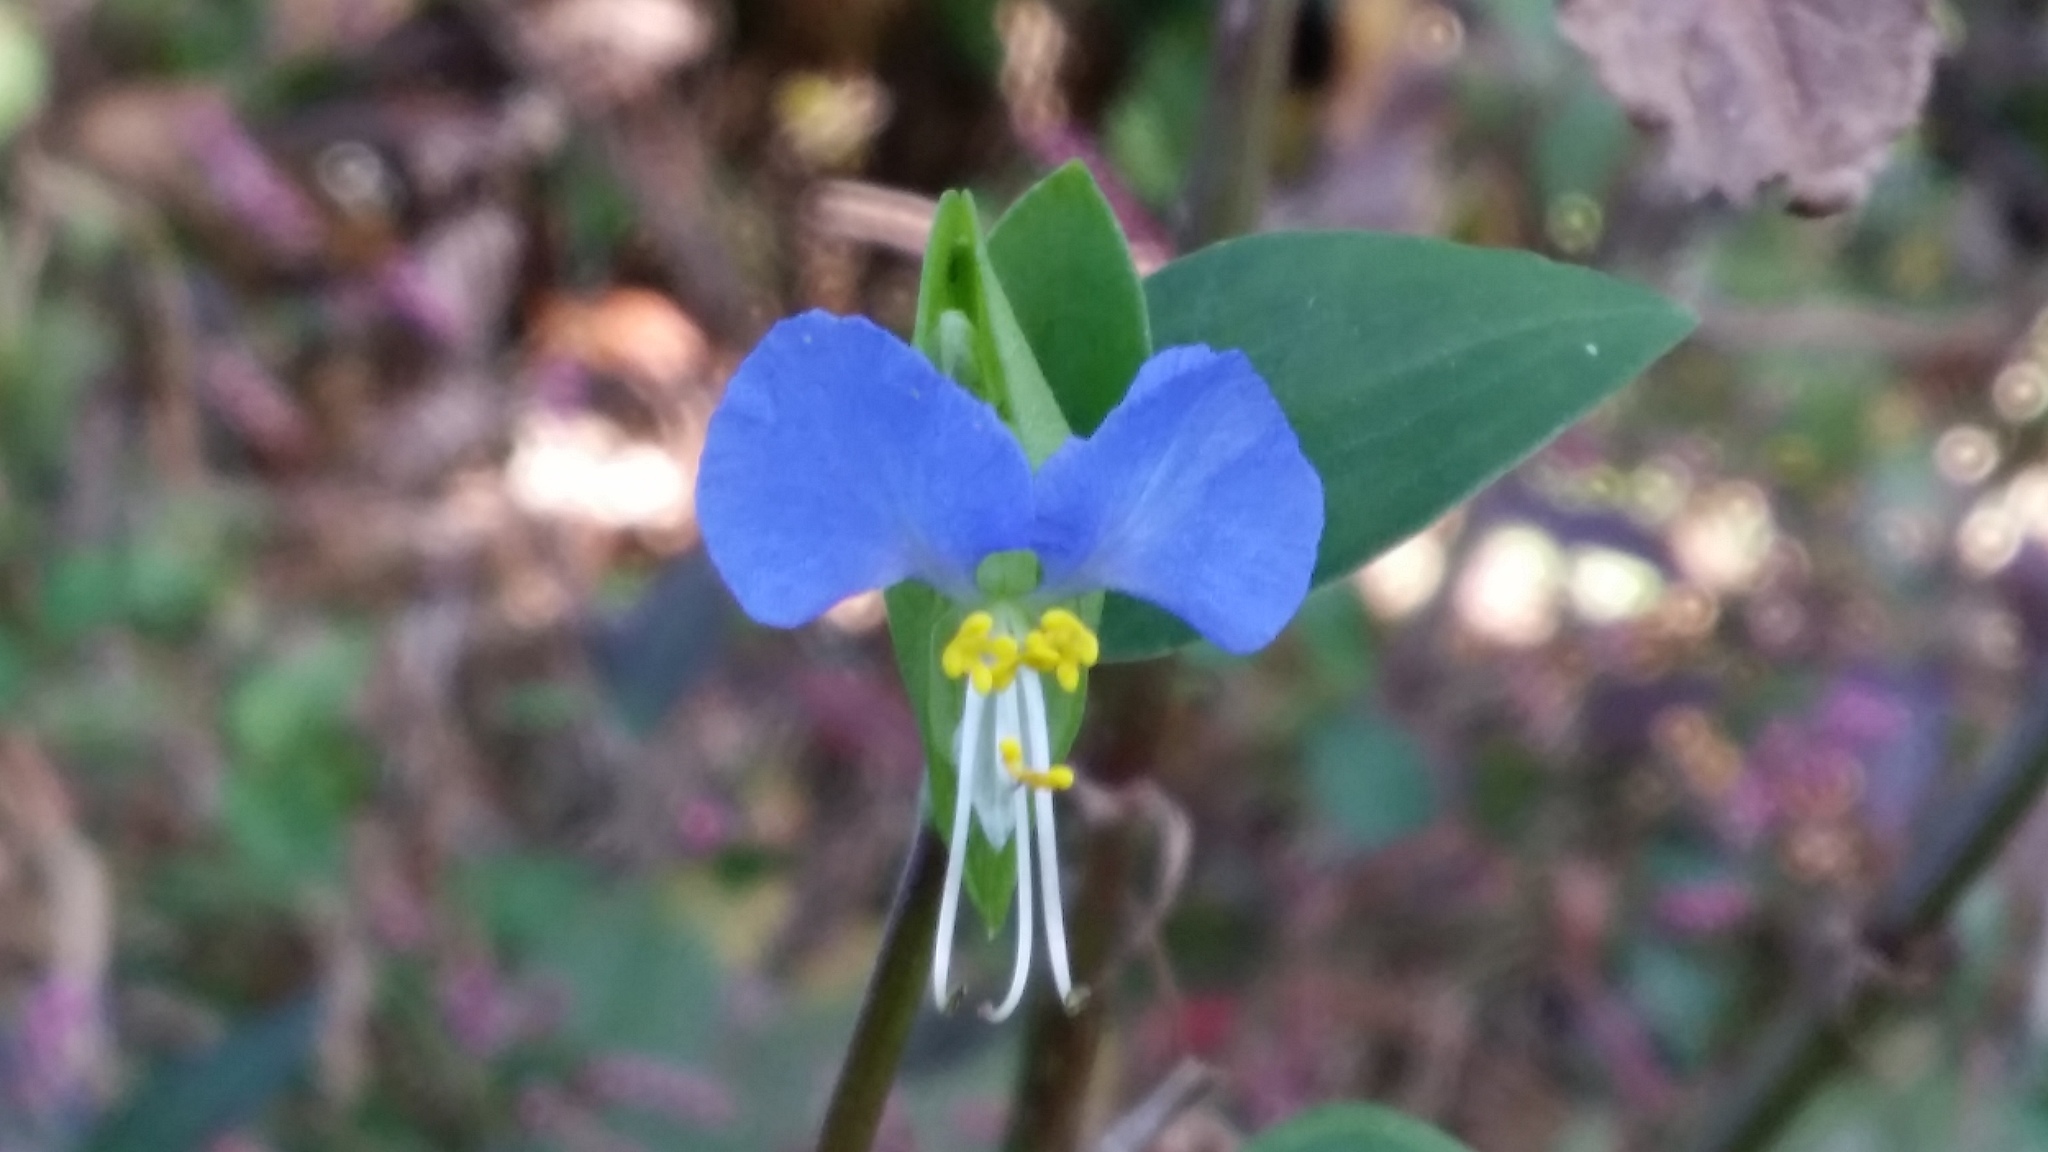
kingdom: Plantae
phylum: Tracheophyta
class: Liliopsida
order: Commelinales
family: Commelinaceae
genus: Commelina
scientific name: Commelina communis
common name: Asiatic dayflower
